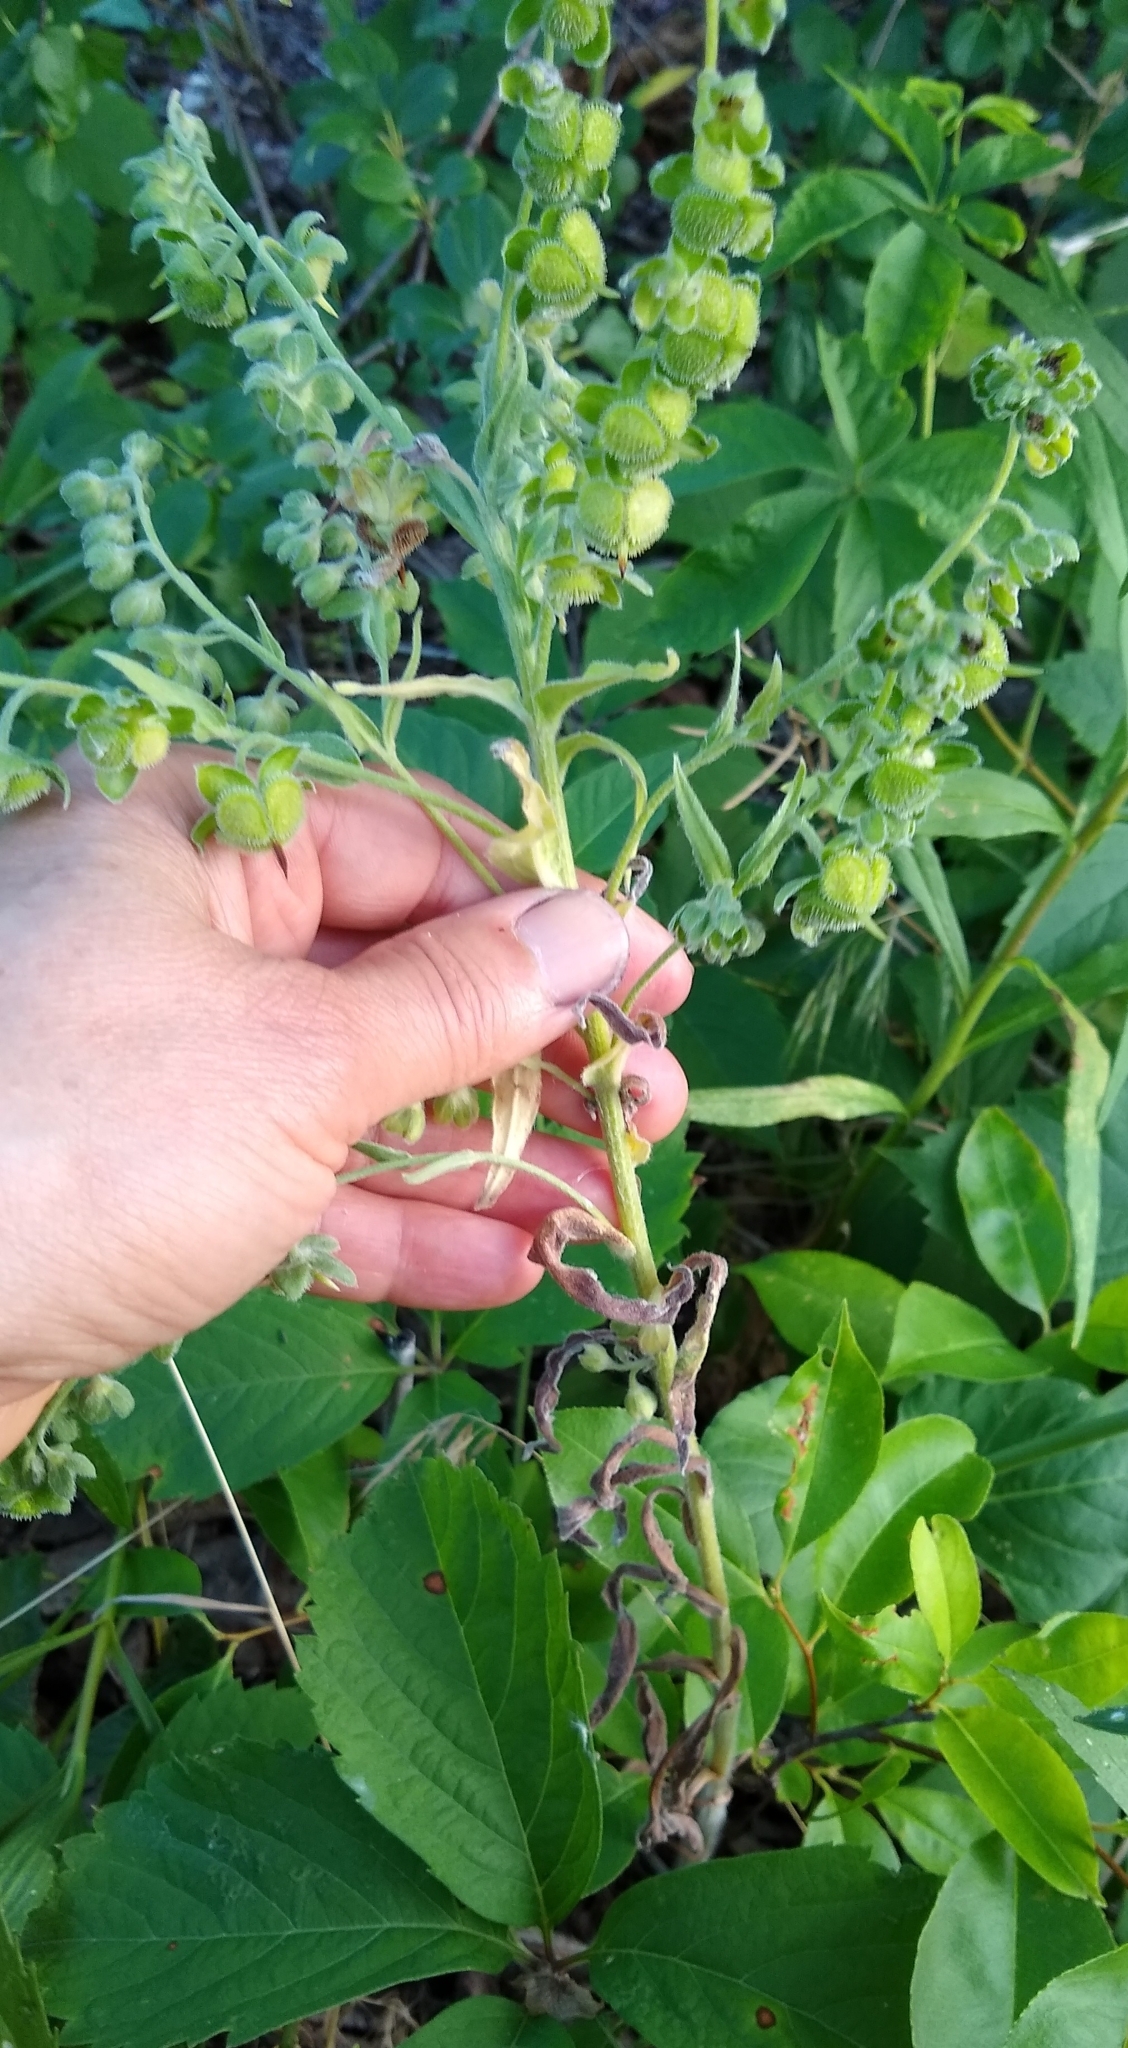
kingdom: Plantae
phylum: Tracheophyta
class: Magnoliopsida
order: Boraginales
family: Boraginaceae
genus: Cynoglossum
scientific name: Cynoglossum officinale
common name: Hound's-tongue
